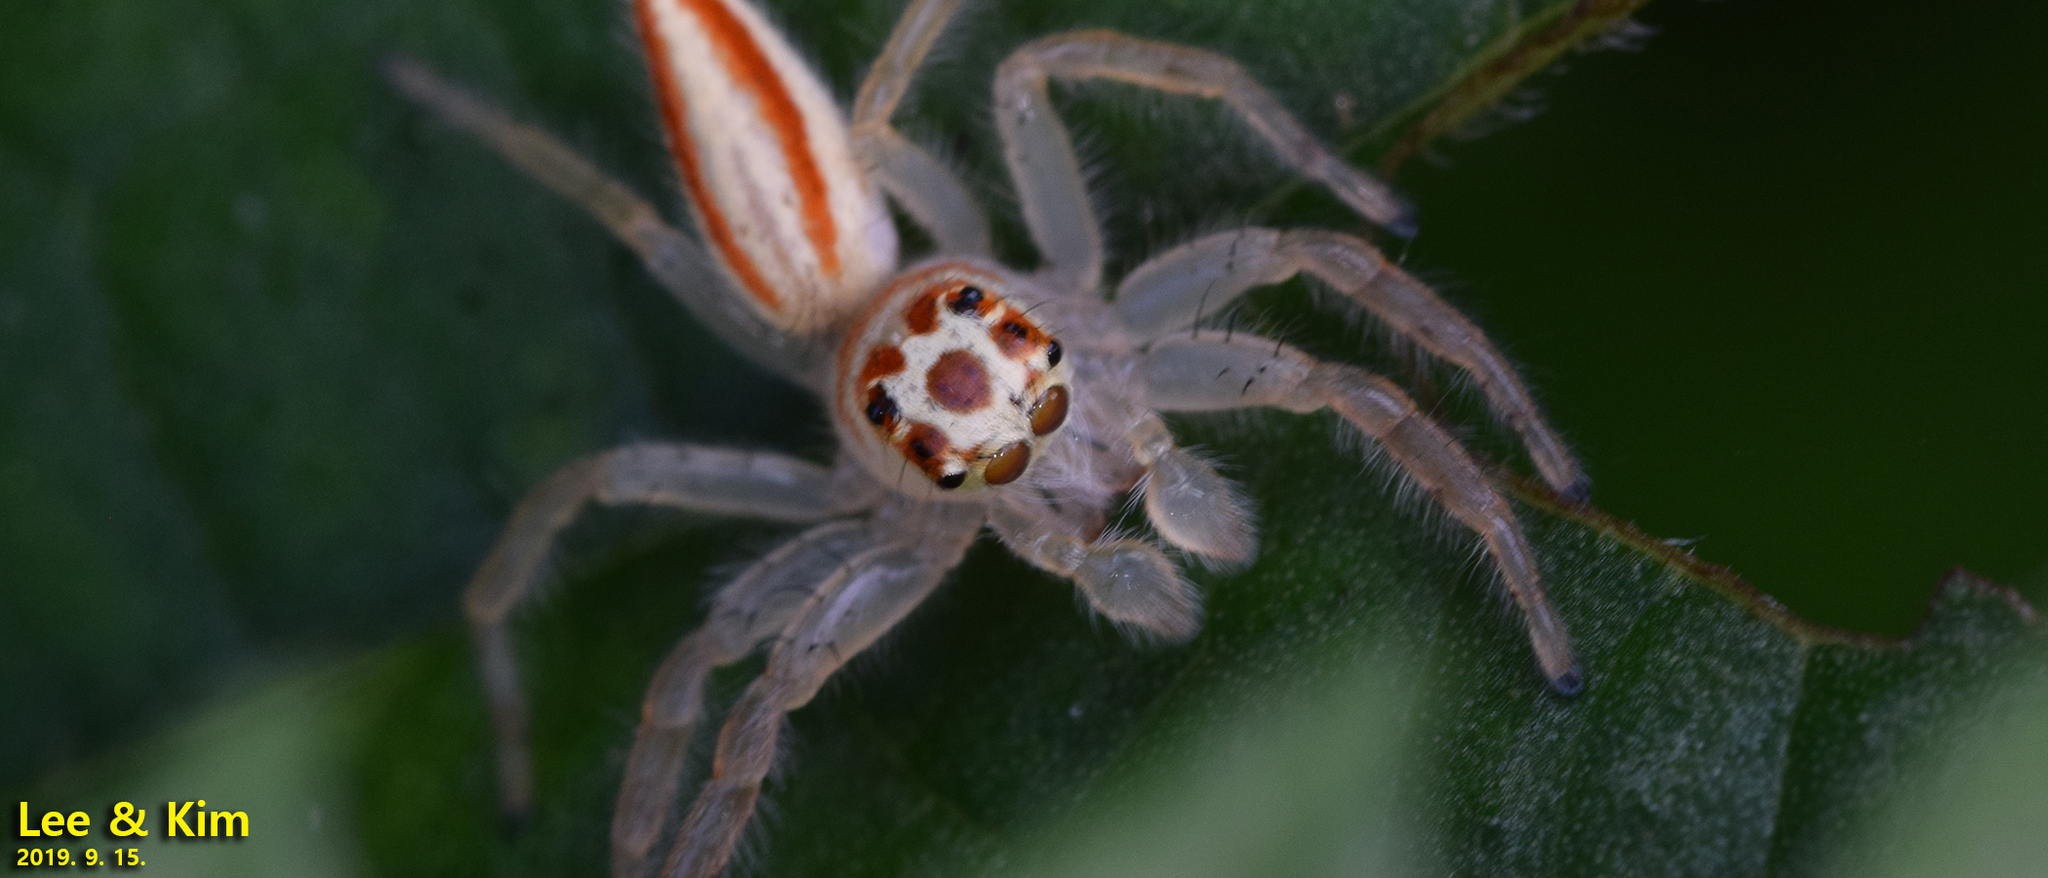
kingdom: Animalia
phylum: Arthropoda
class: Arachnida
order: Araneae
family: Salticidae
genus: Telamonia
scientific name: Telamonia vlijmi
